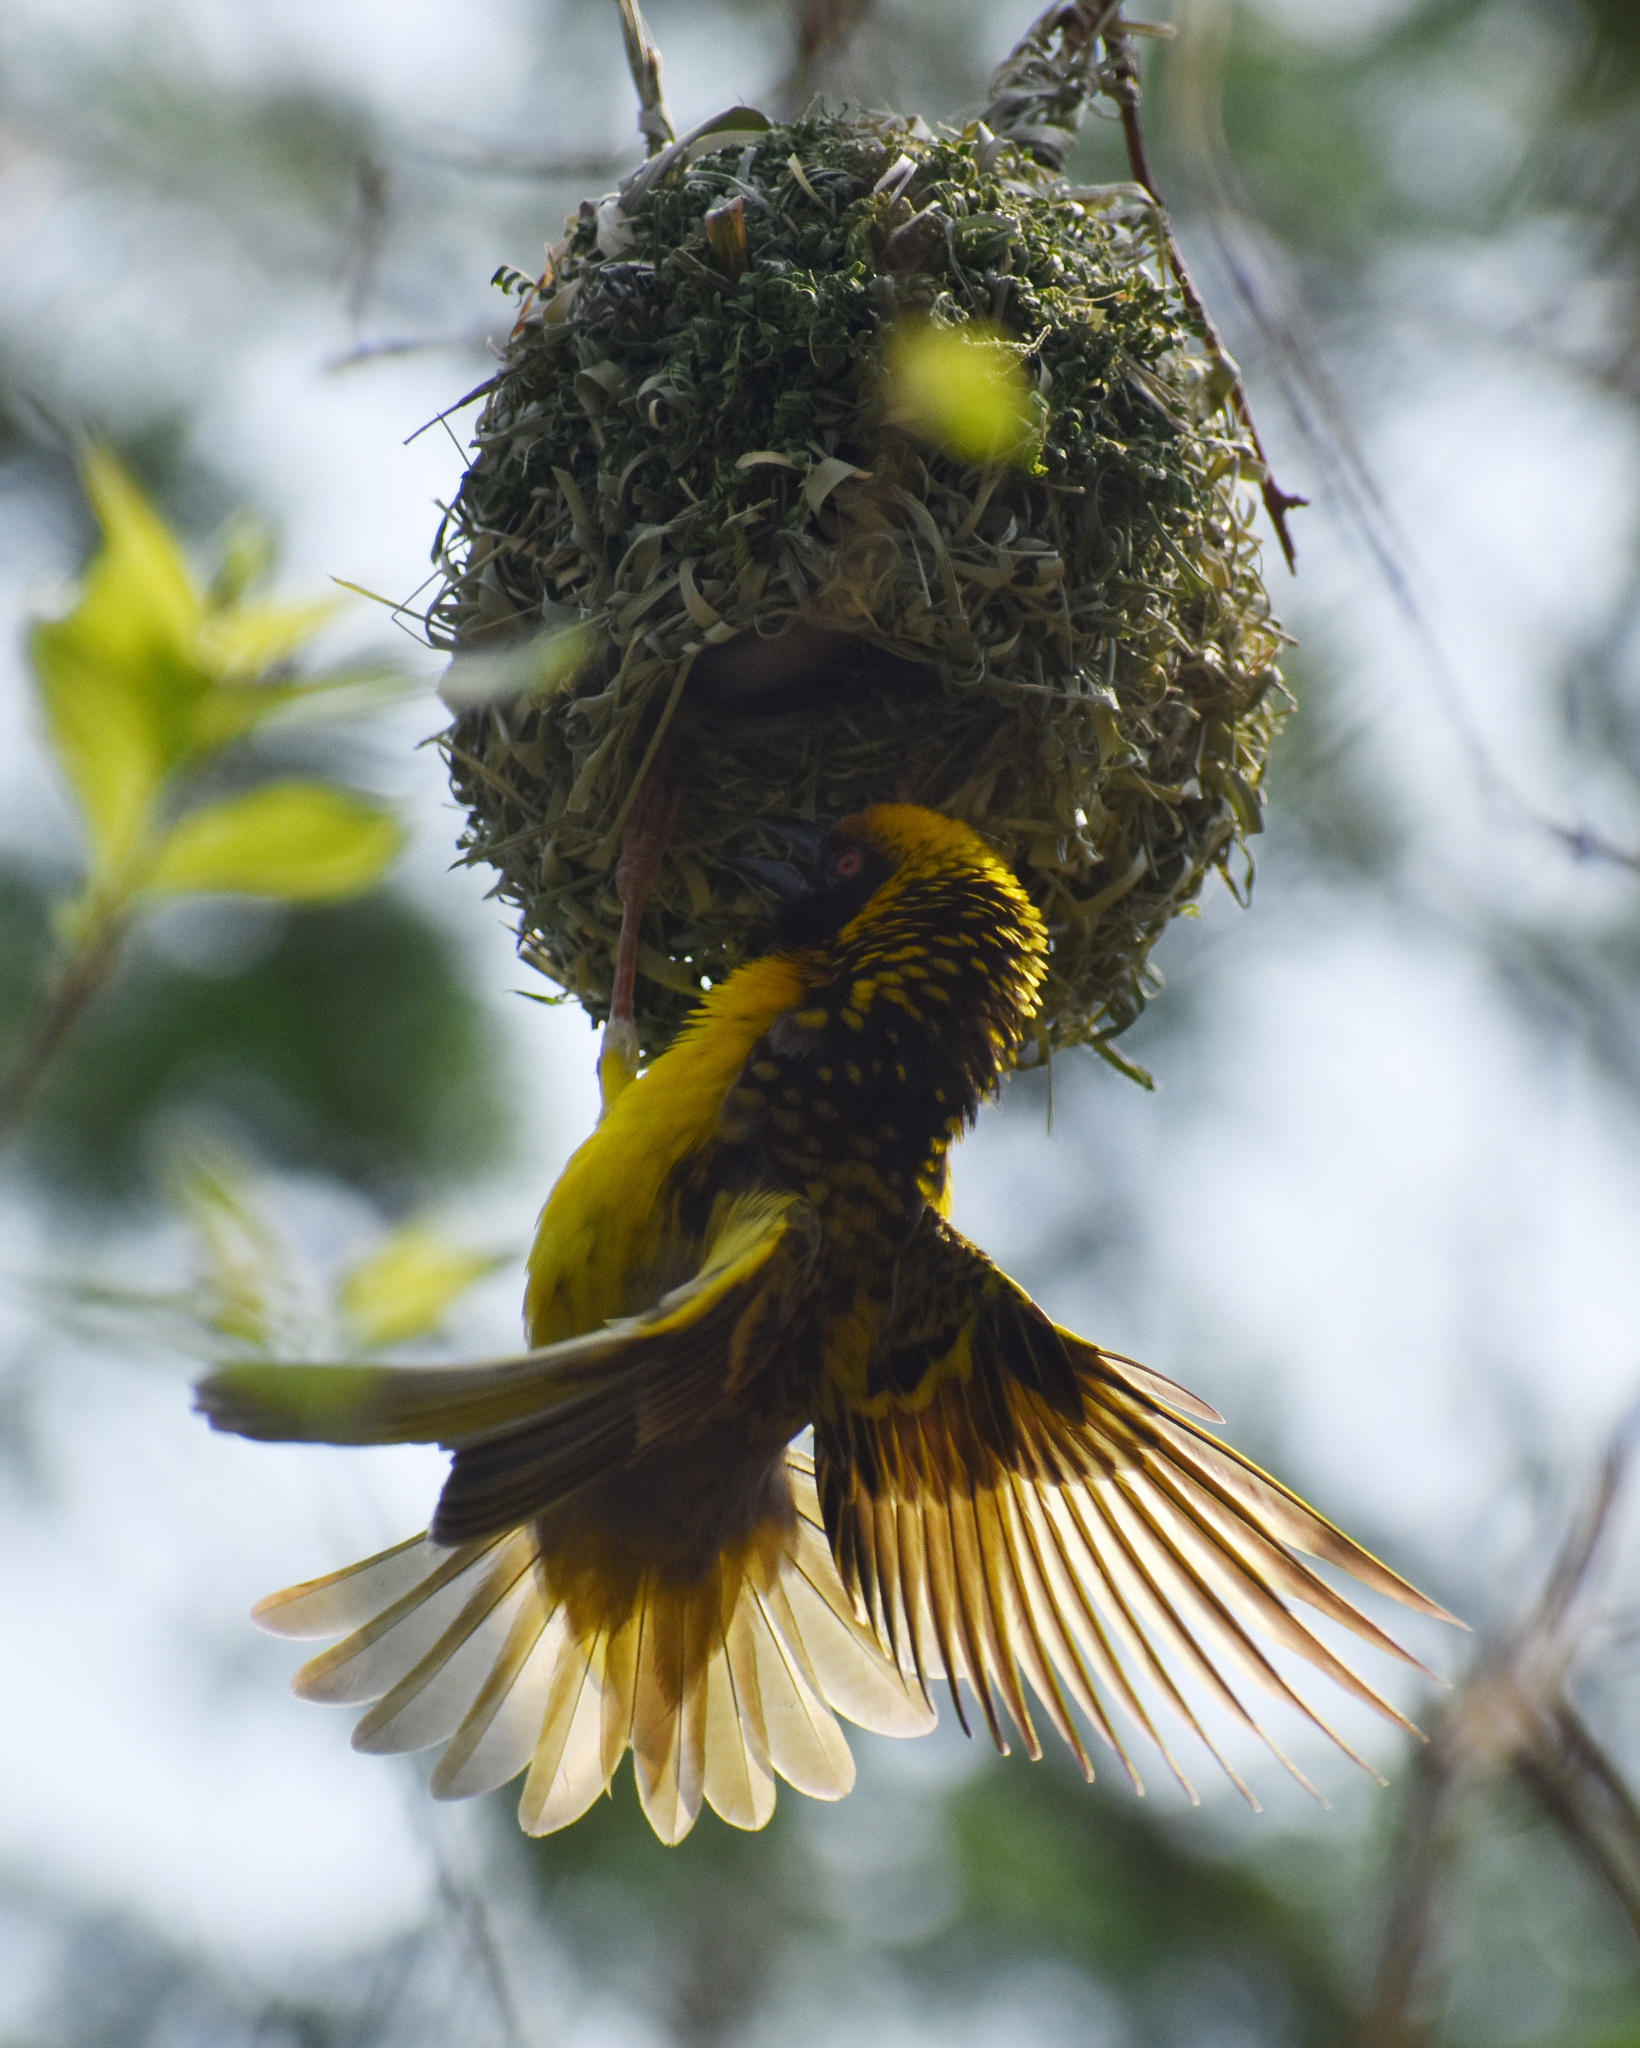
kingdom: Animalia
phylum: Chordata
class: Aves
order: Passeriformes
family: Ploceidae
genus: Ploceus
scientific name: Ploceus cucullatus
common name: Village weaver
